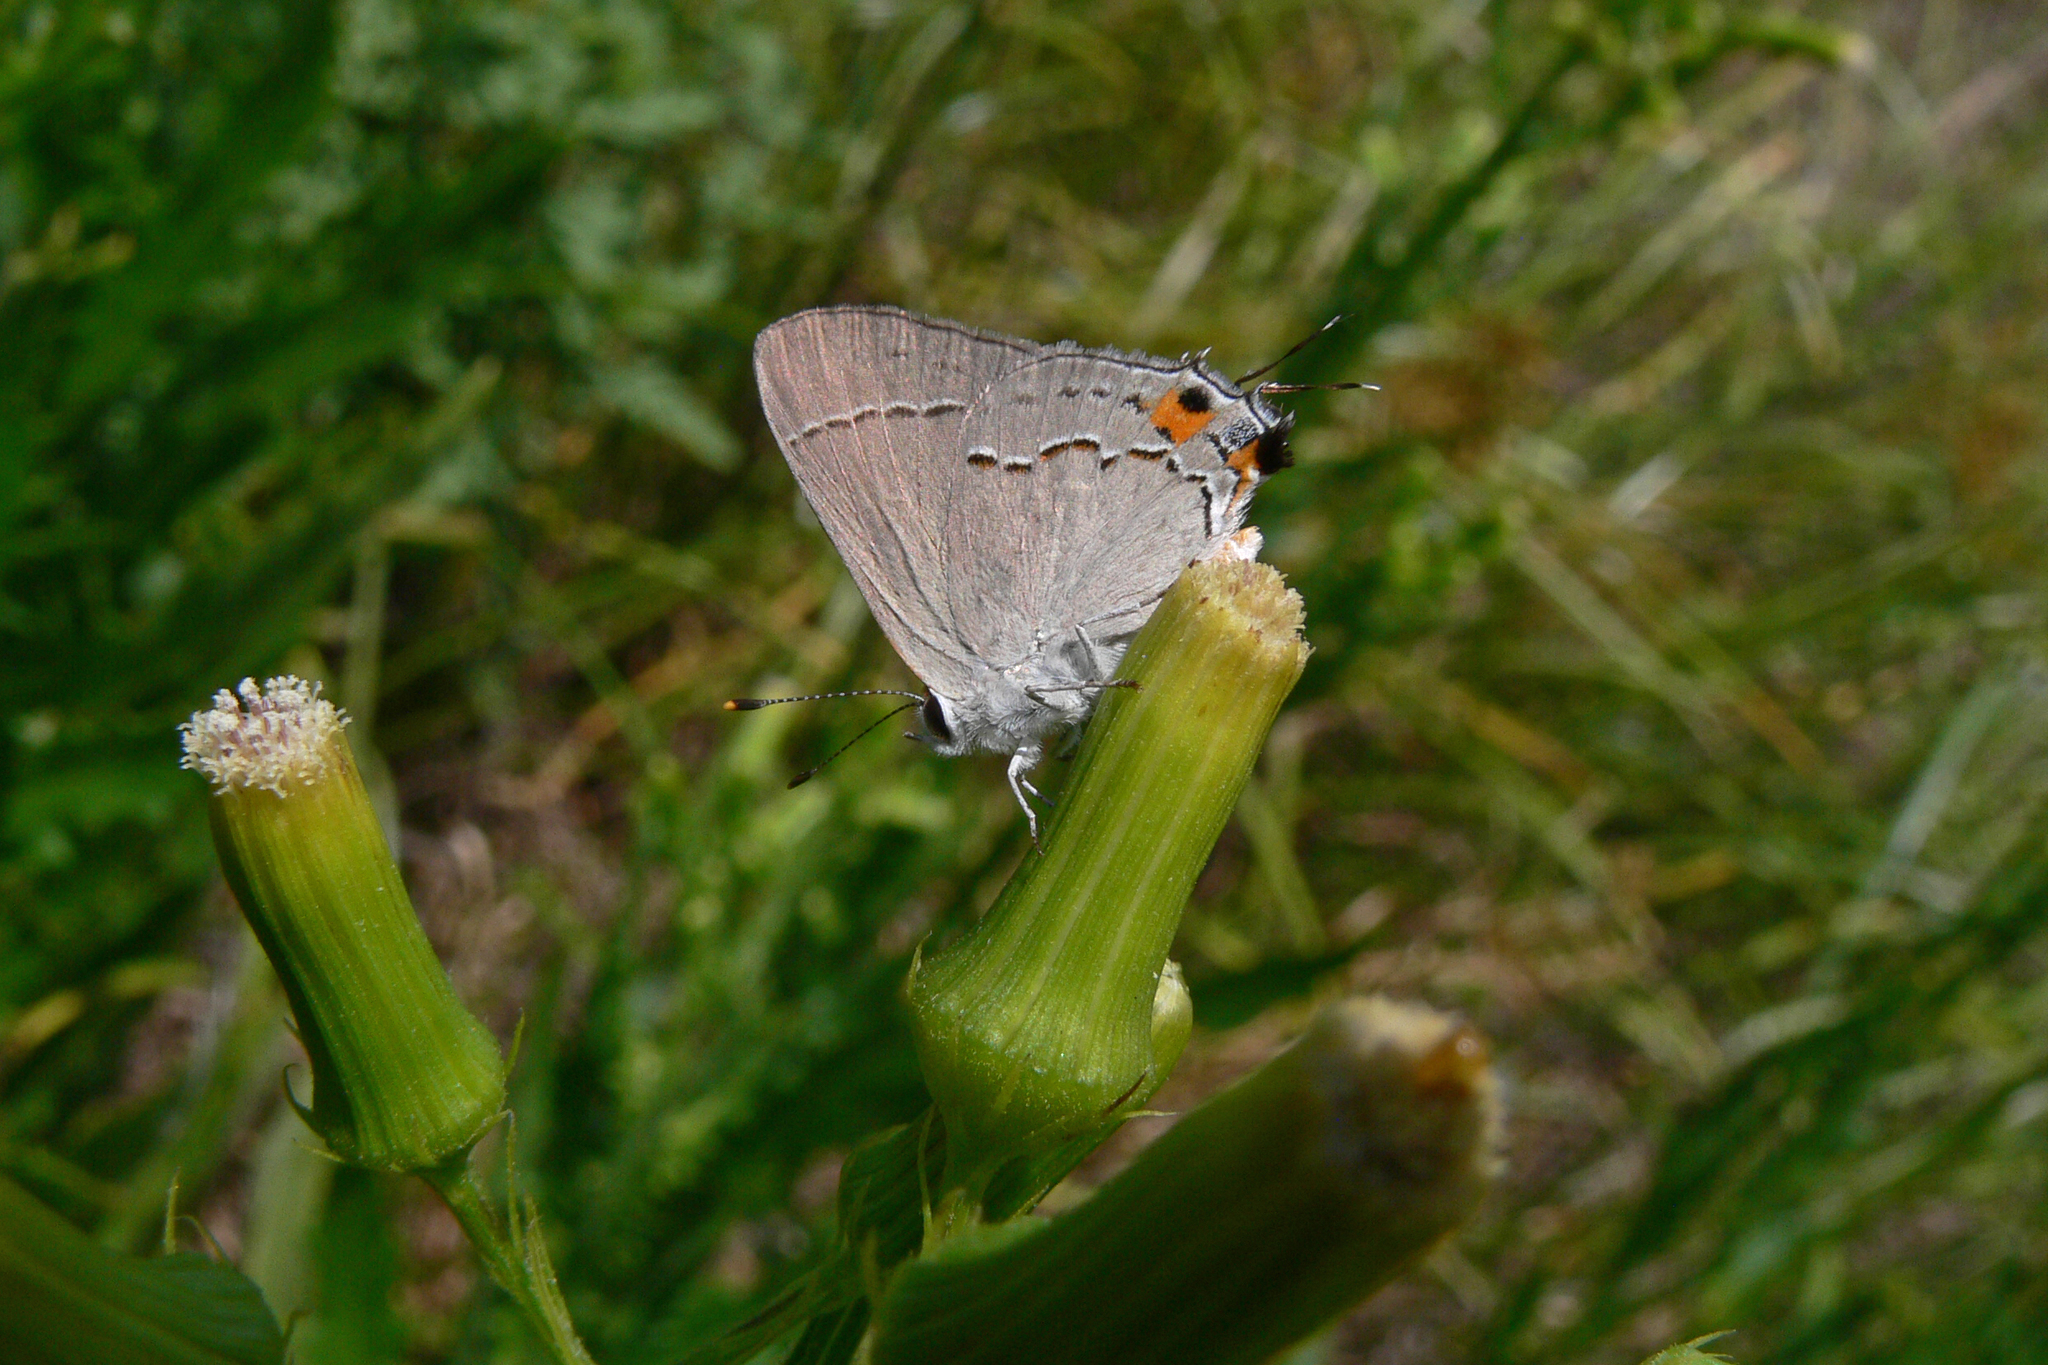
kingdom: Animalia
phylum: Arthropoda
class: Insecta
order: Lepidoptera
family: Lycaenidae
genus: Strymon
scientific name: Strymon melinus
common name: Gray hairstreak
